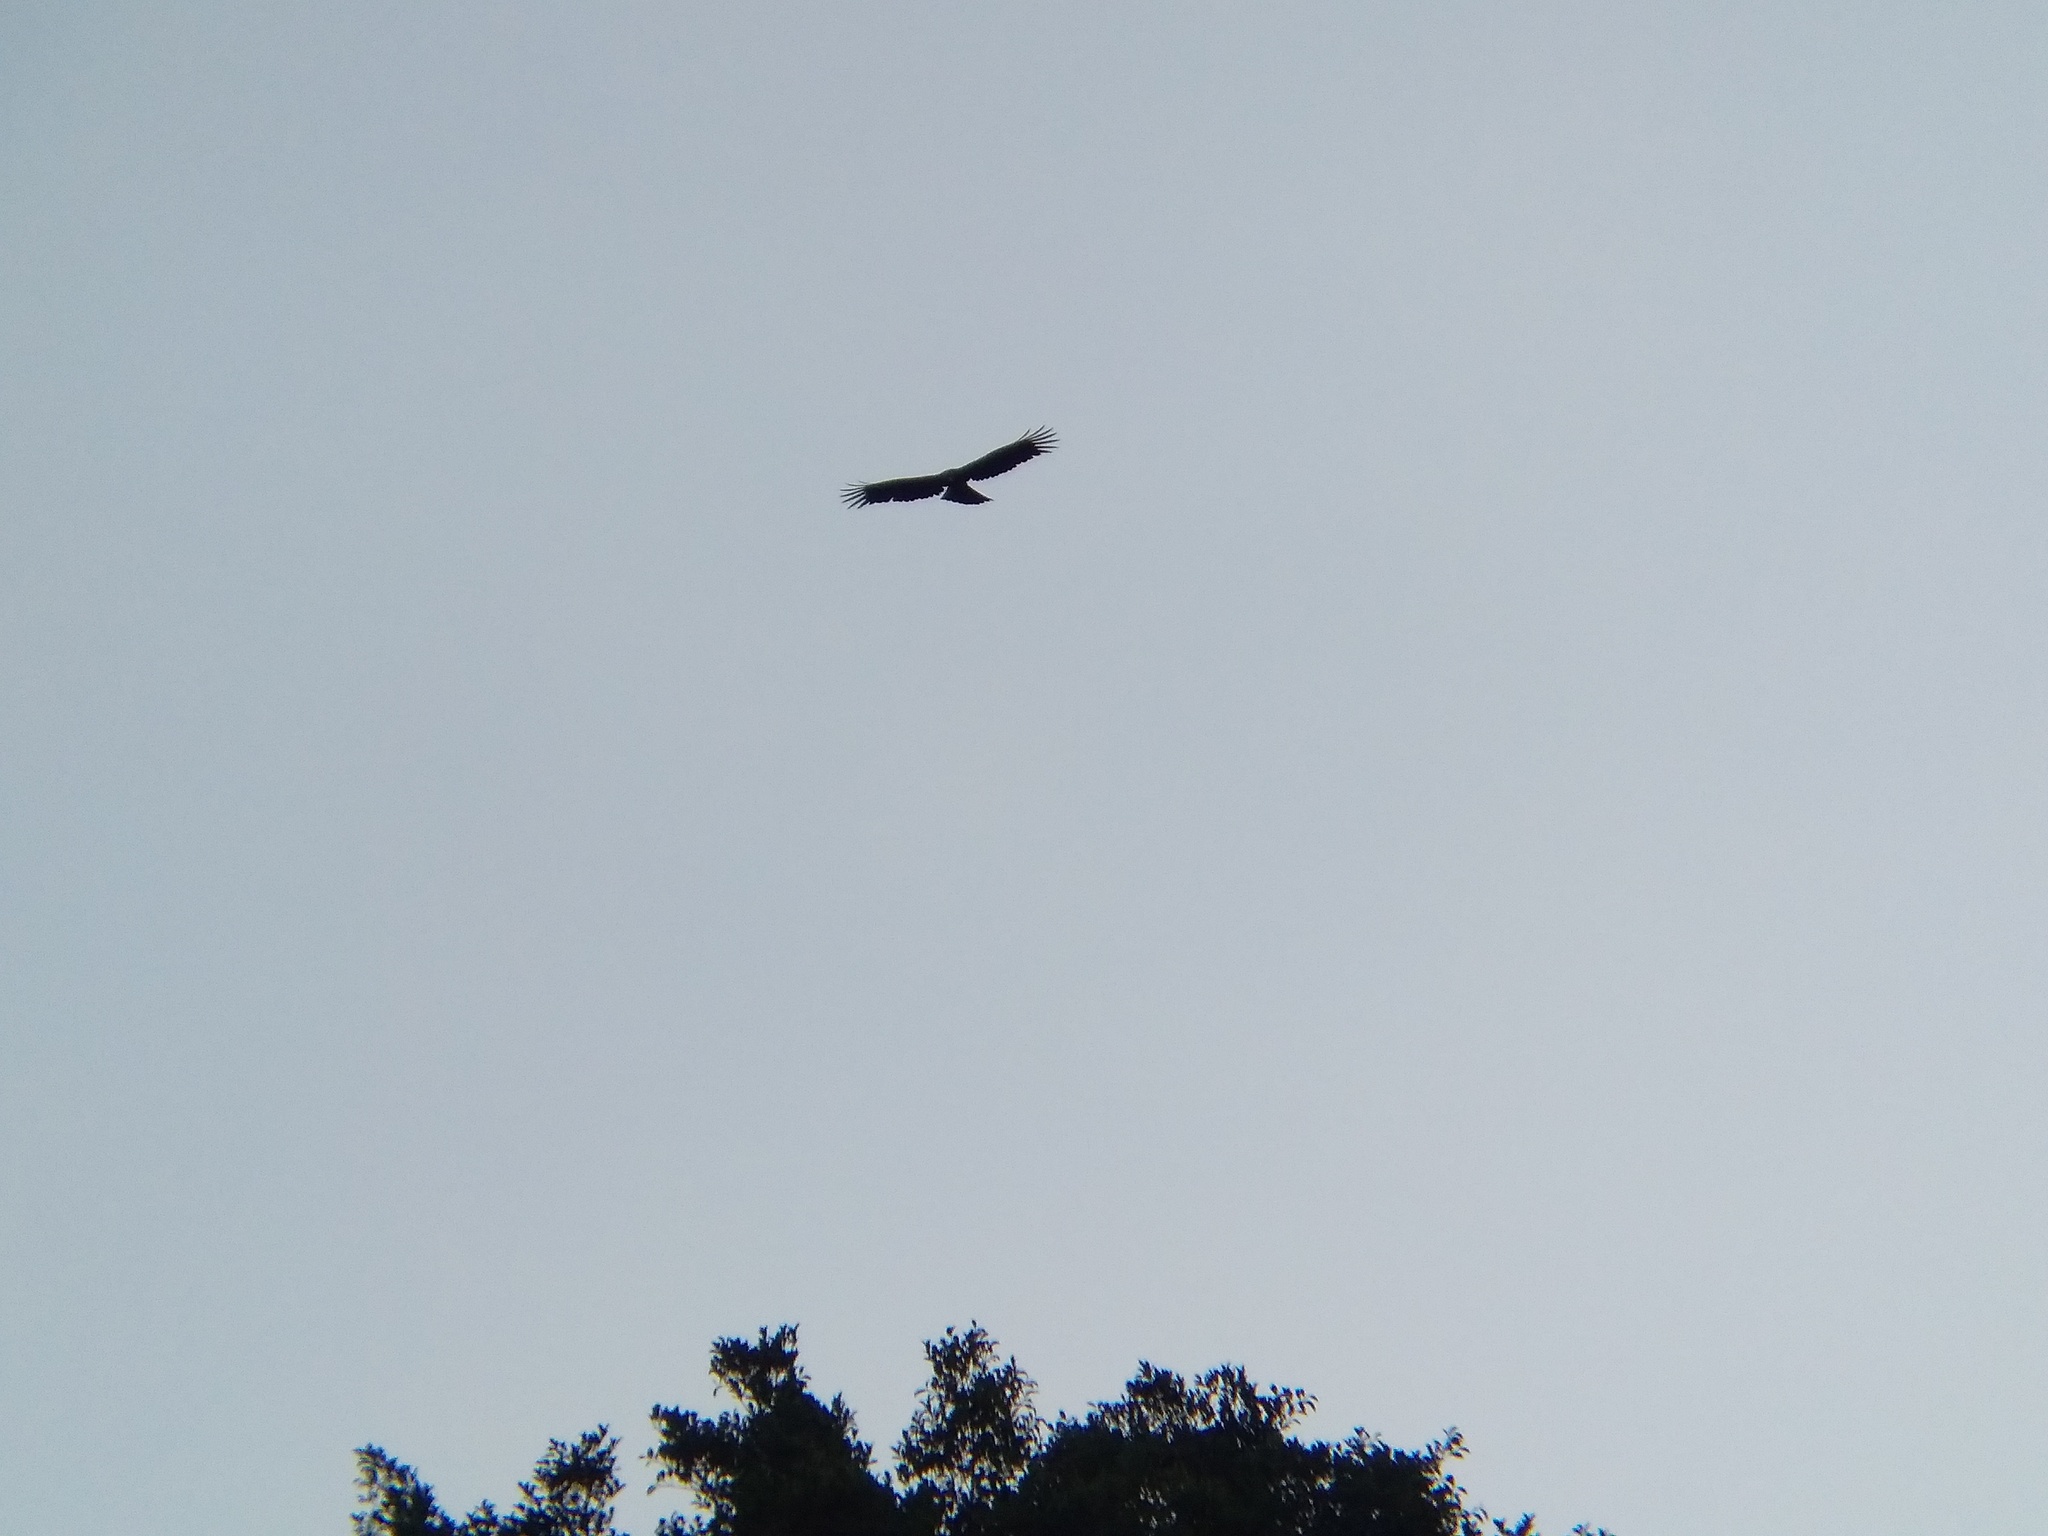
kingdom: Animalia
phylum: Chordata
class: Aves
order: Accipitriformes
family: Accipitridae
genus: Ictinaetus
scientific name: Ictinaetus malayensis
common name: Black eagle
